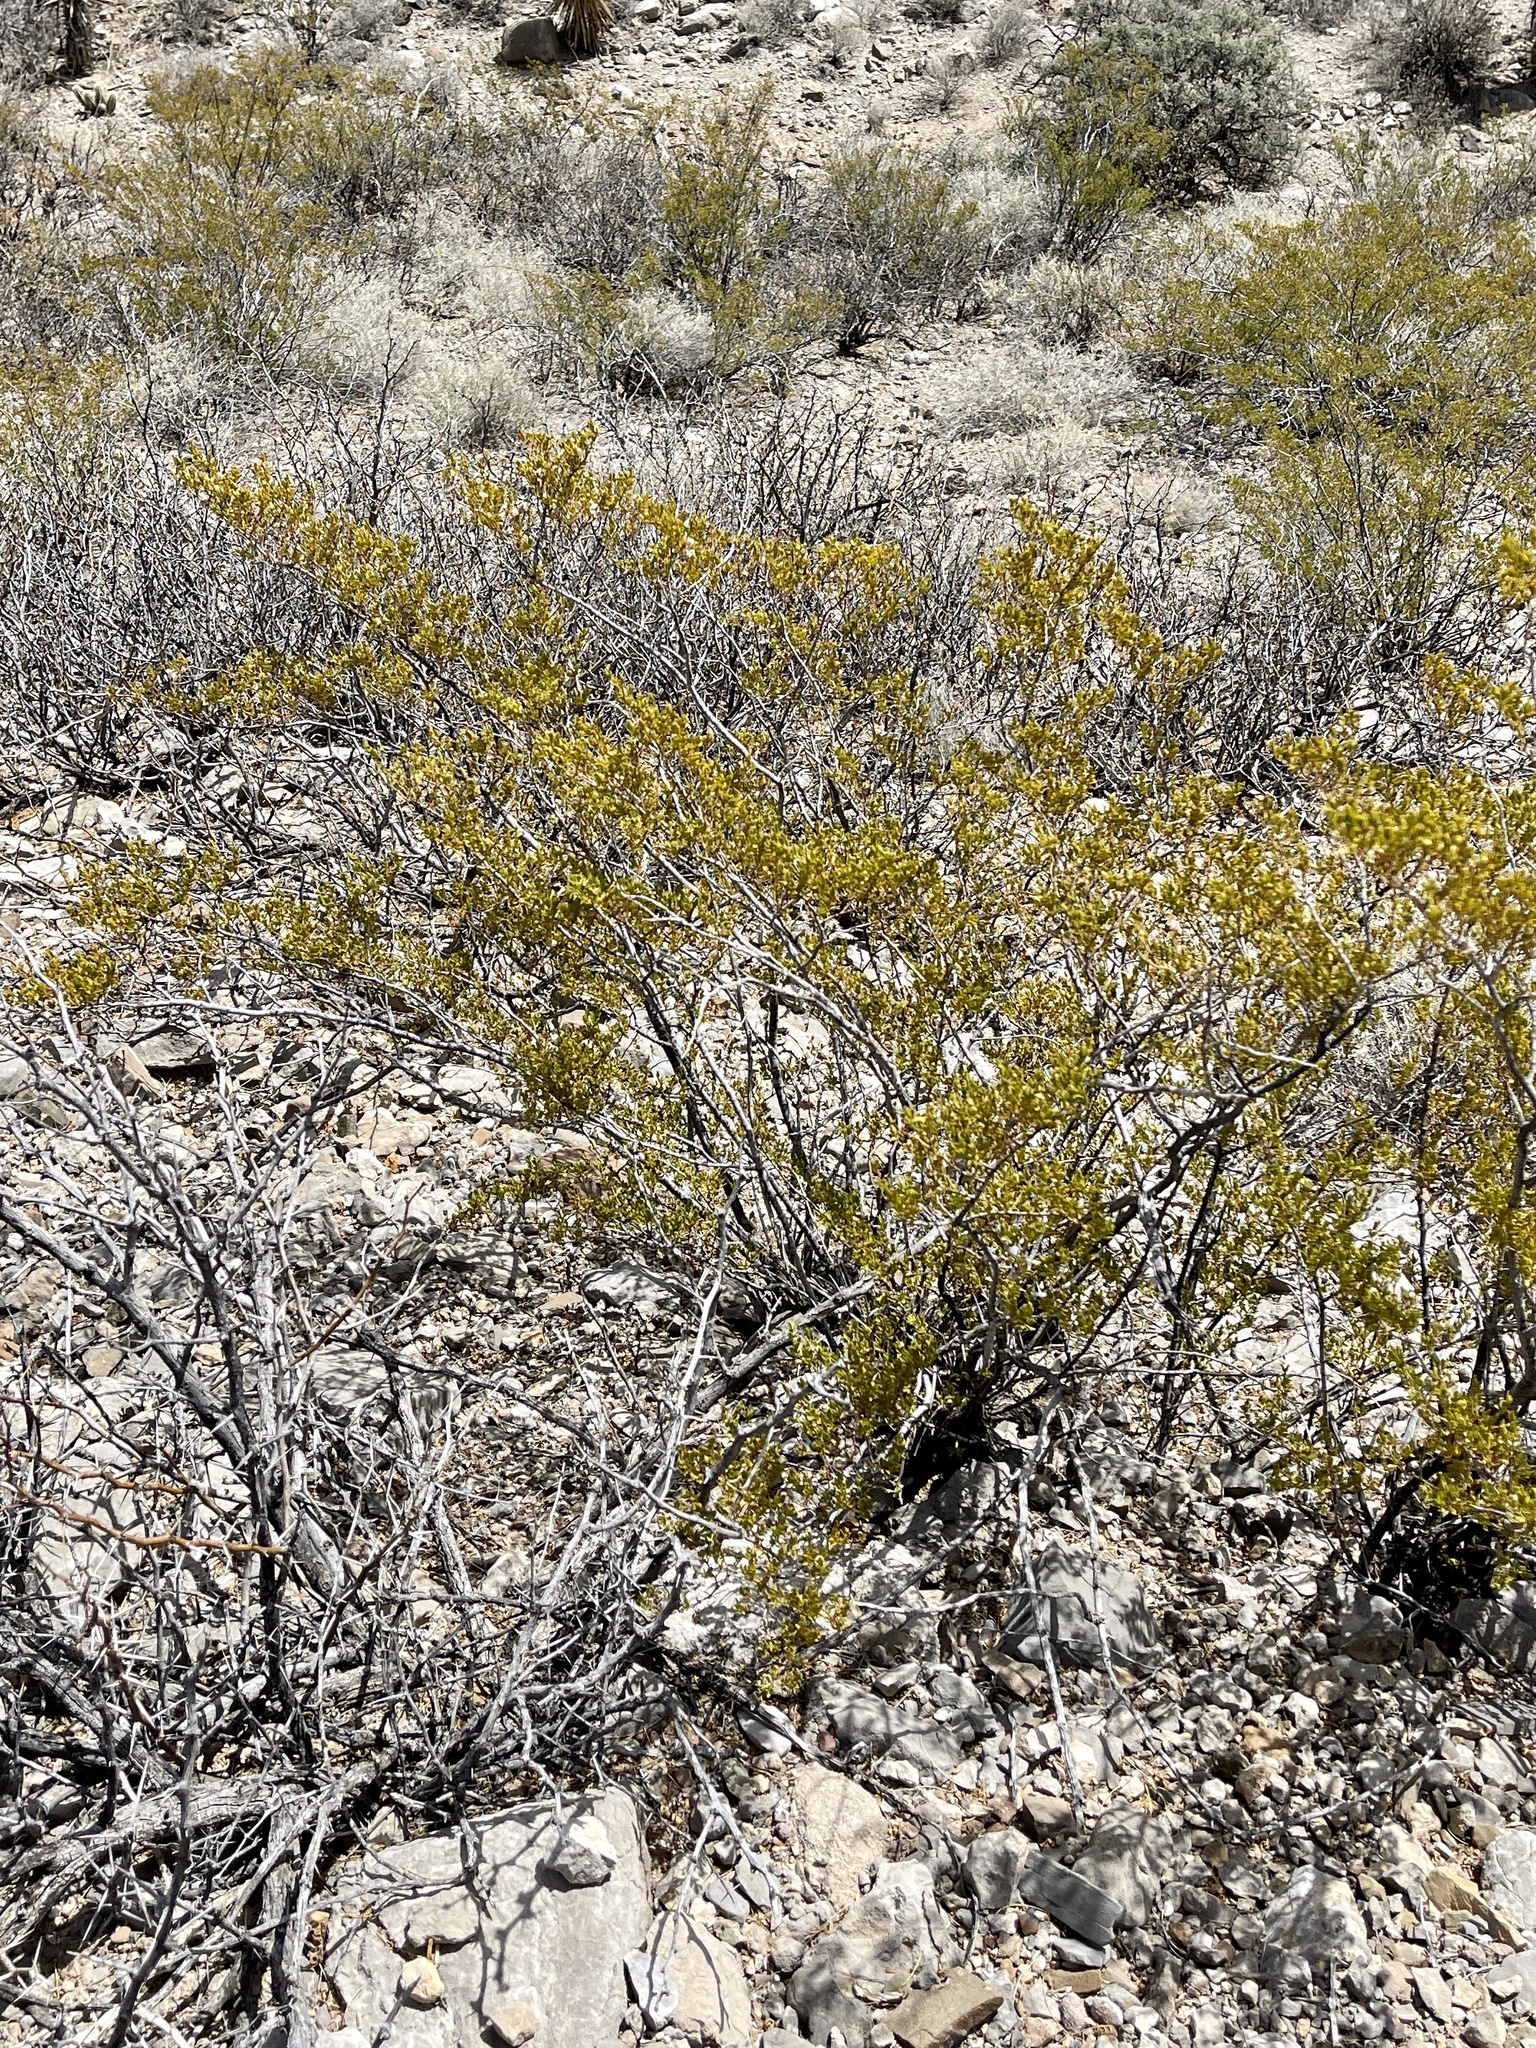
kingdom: Plantae
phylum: Tracheophyta
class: Magnoliopsida
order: Zygophyllales
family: Zygophyllaceae
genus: Larrea
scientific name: Larrea tridentata
